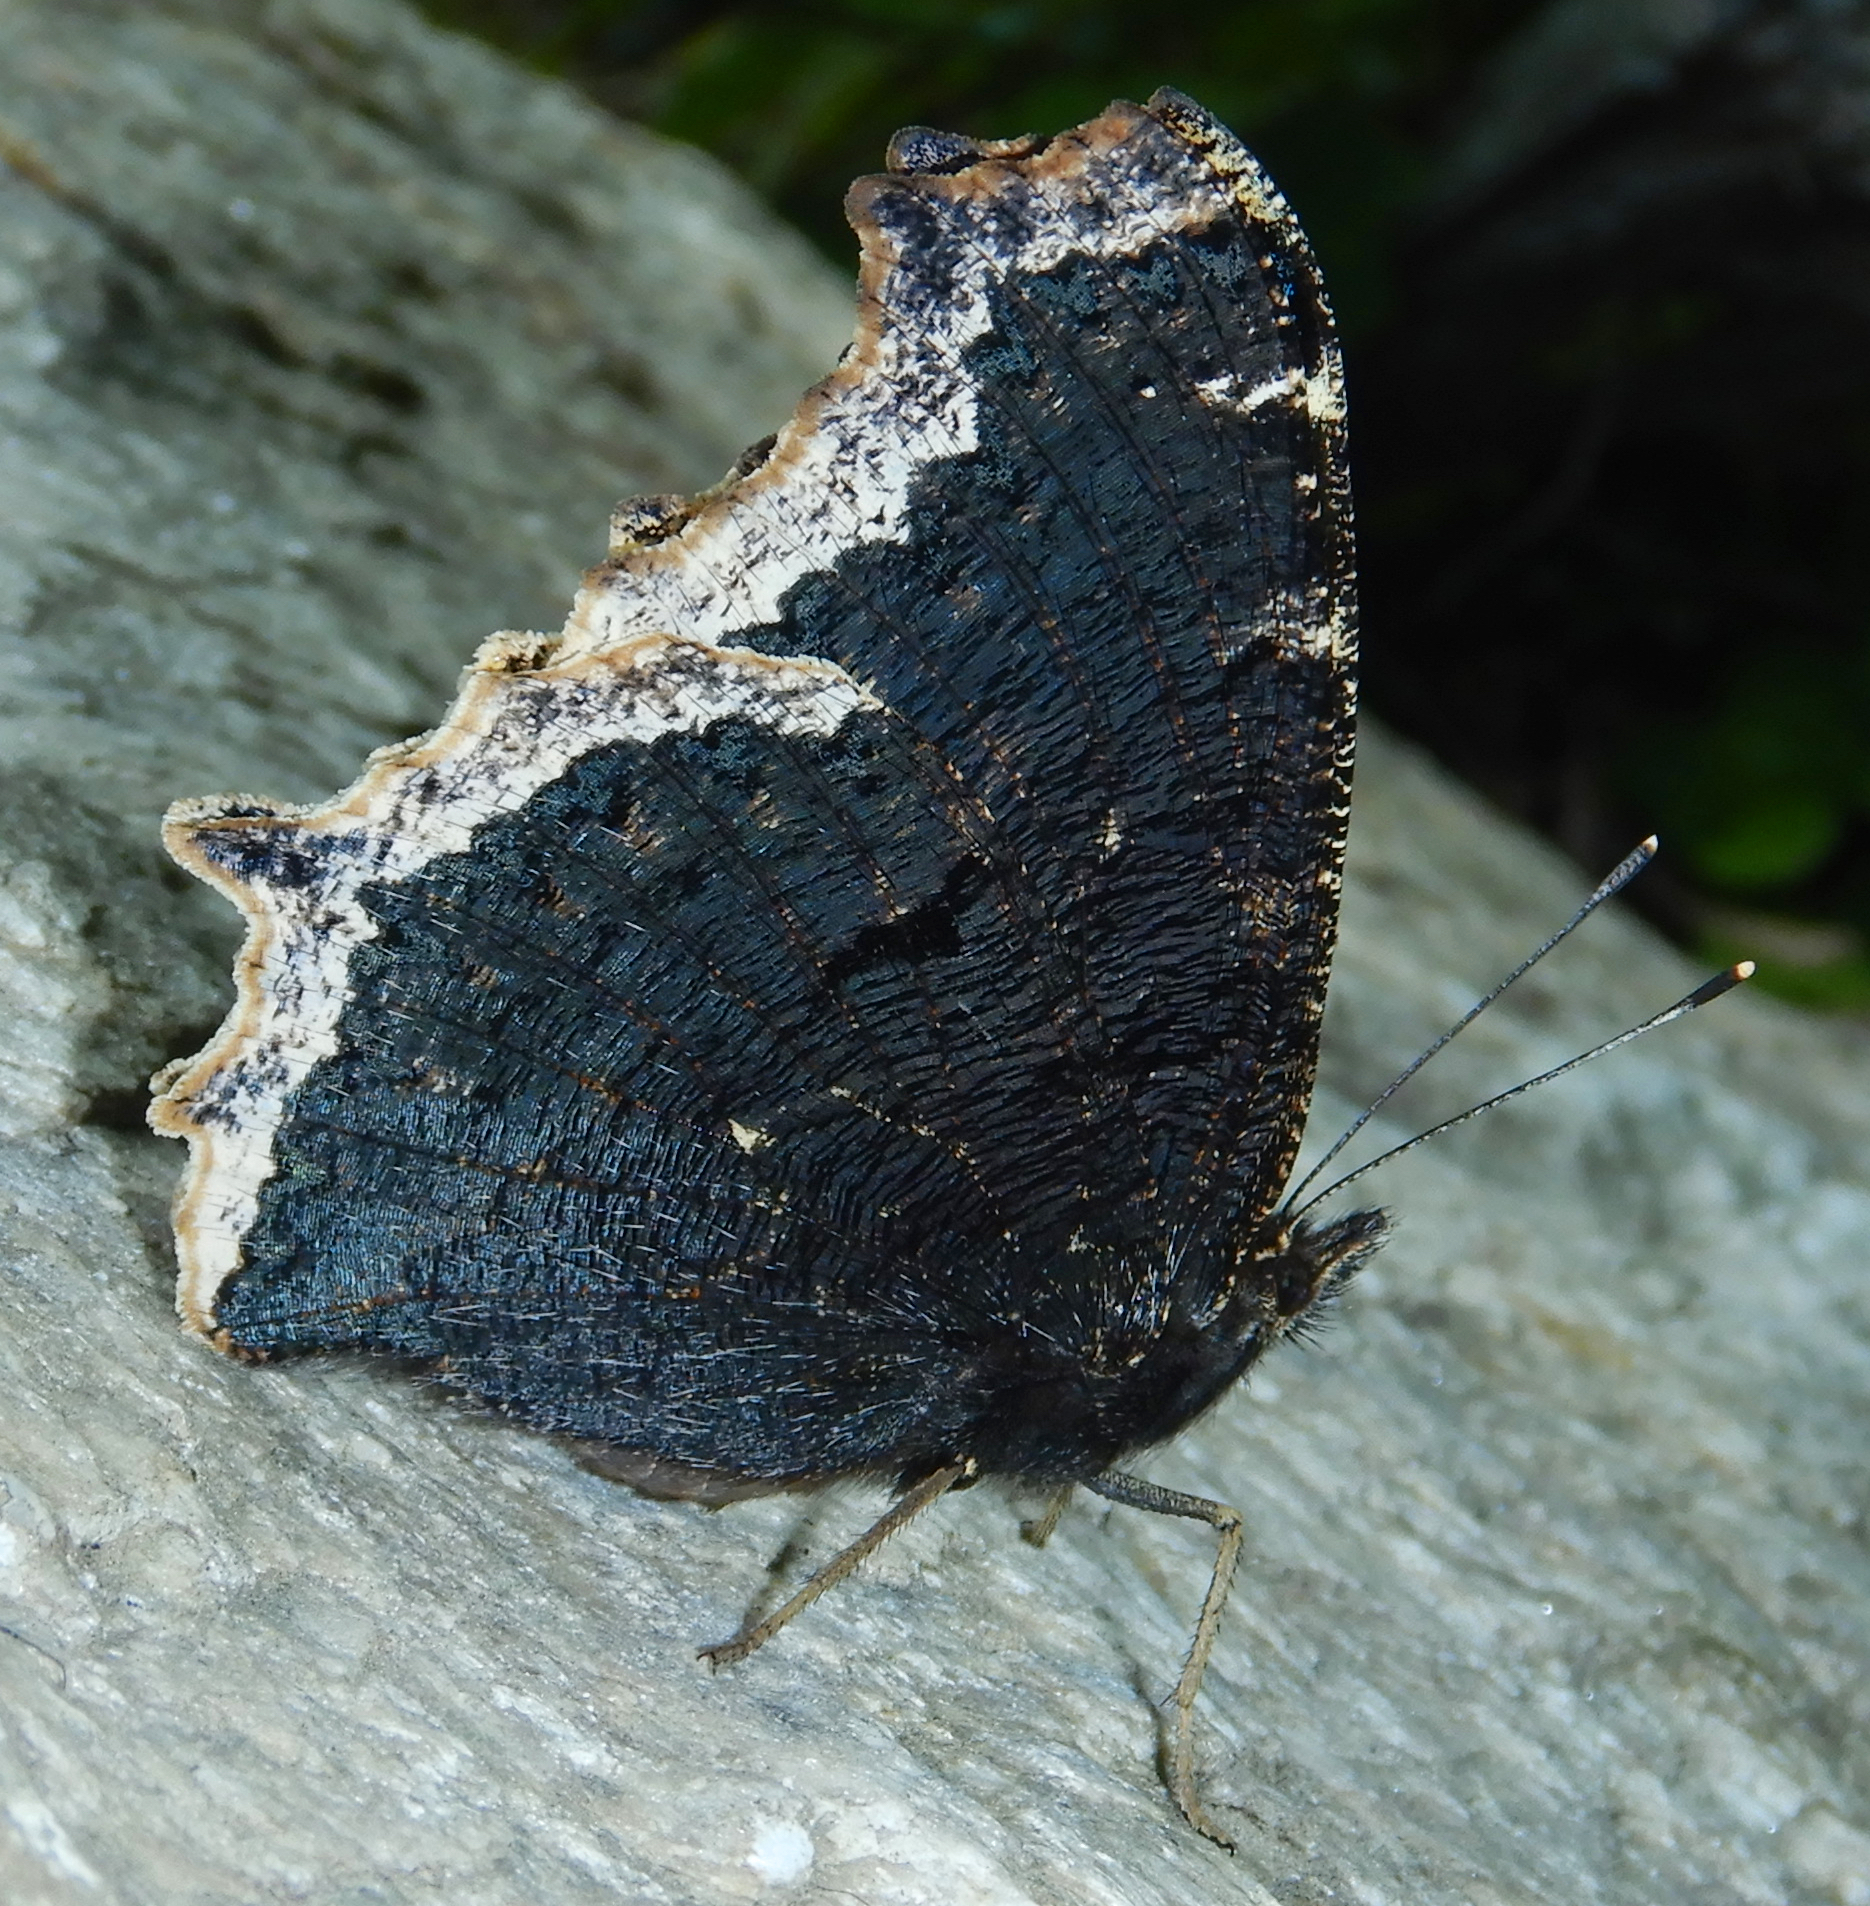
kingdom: Animalia
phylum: Arthropoda
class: Insecta
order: Lepidoptera
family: Nymphalidae
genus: Nymphalis
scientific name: Nymphalis antiopa
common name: Camberwell beauty
